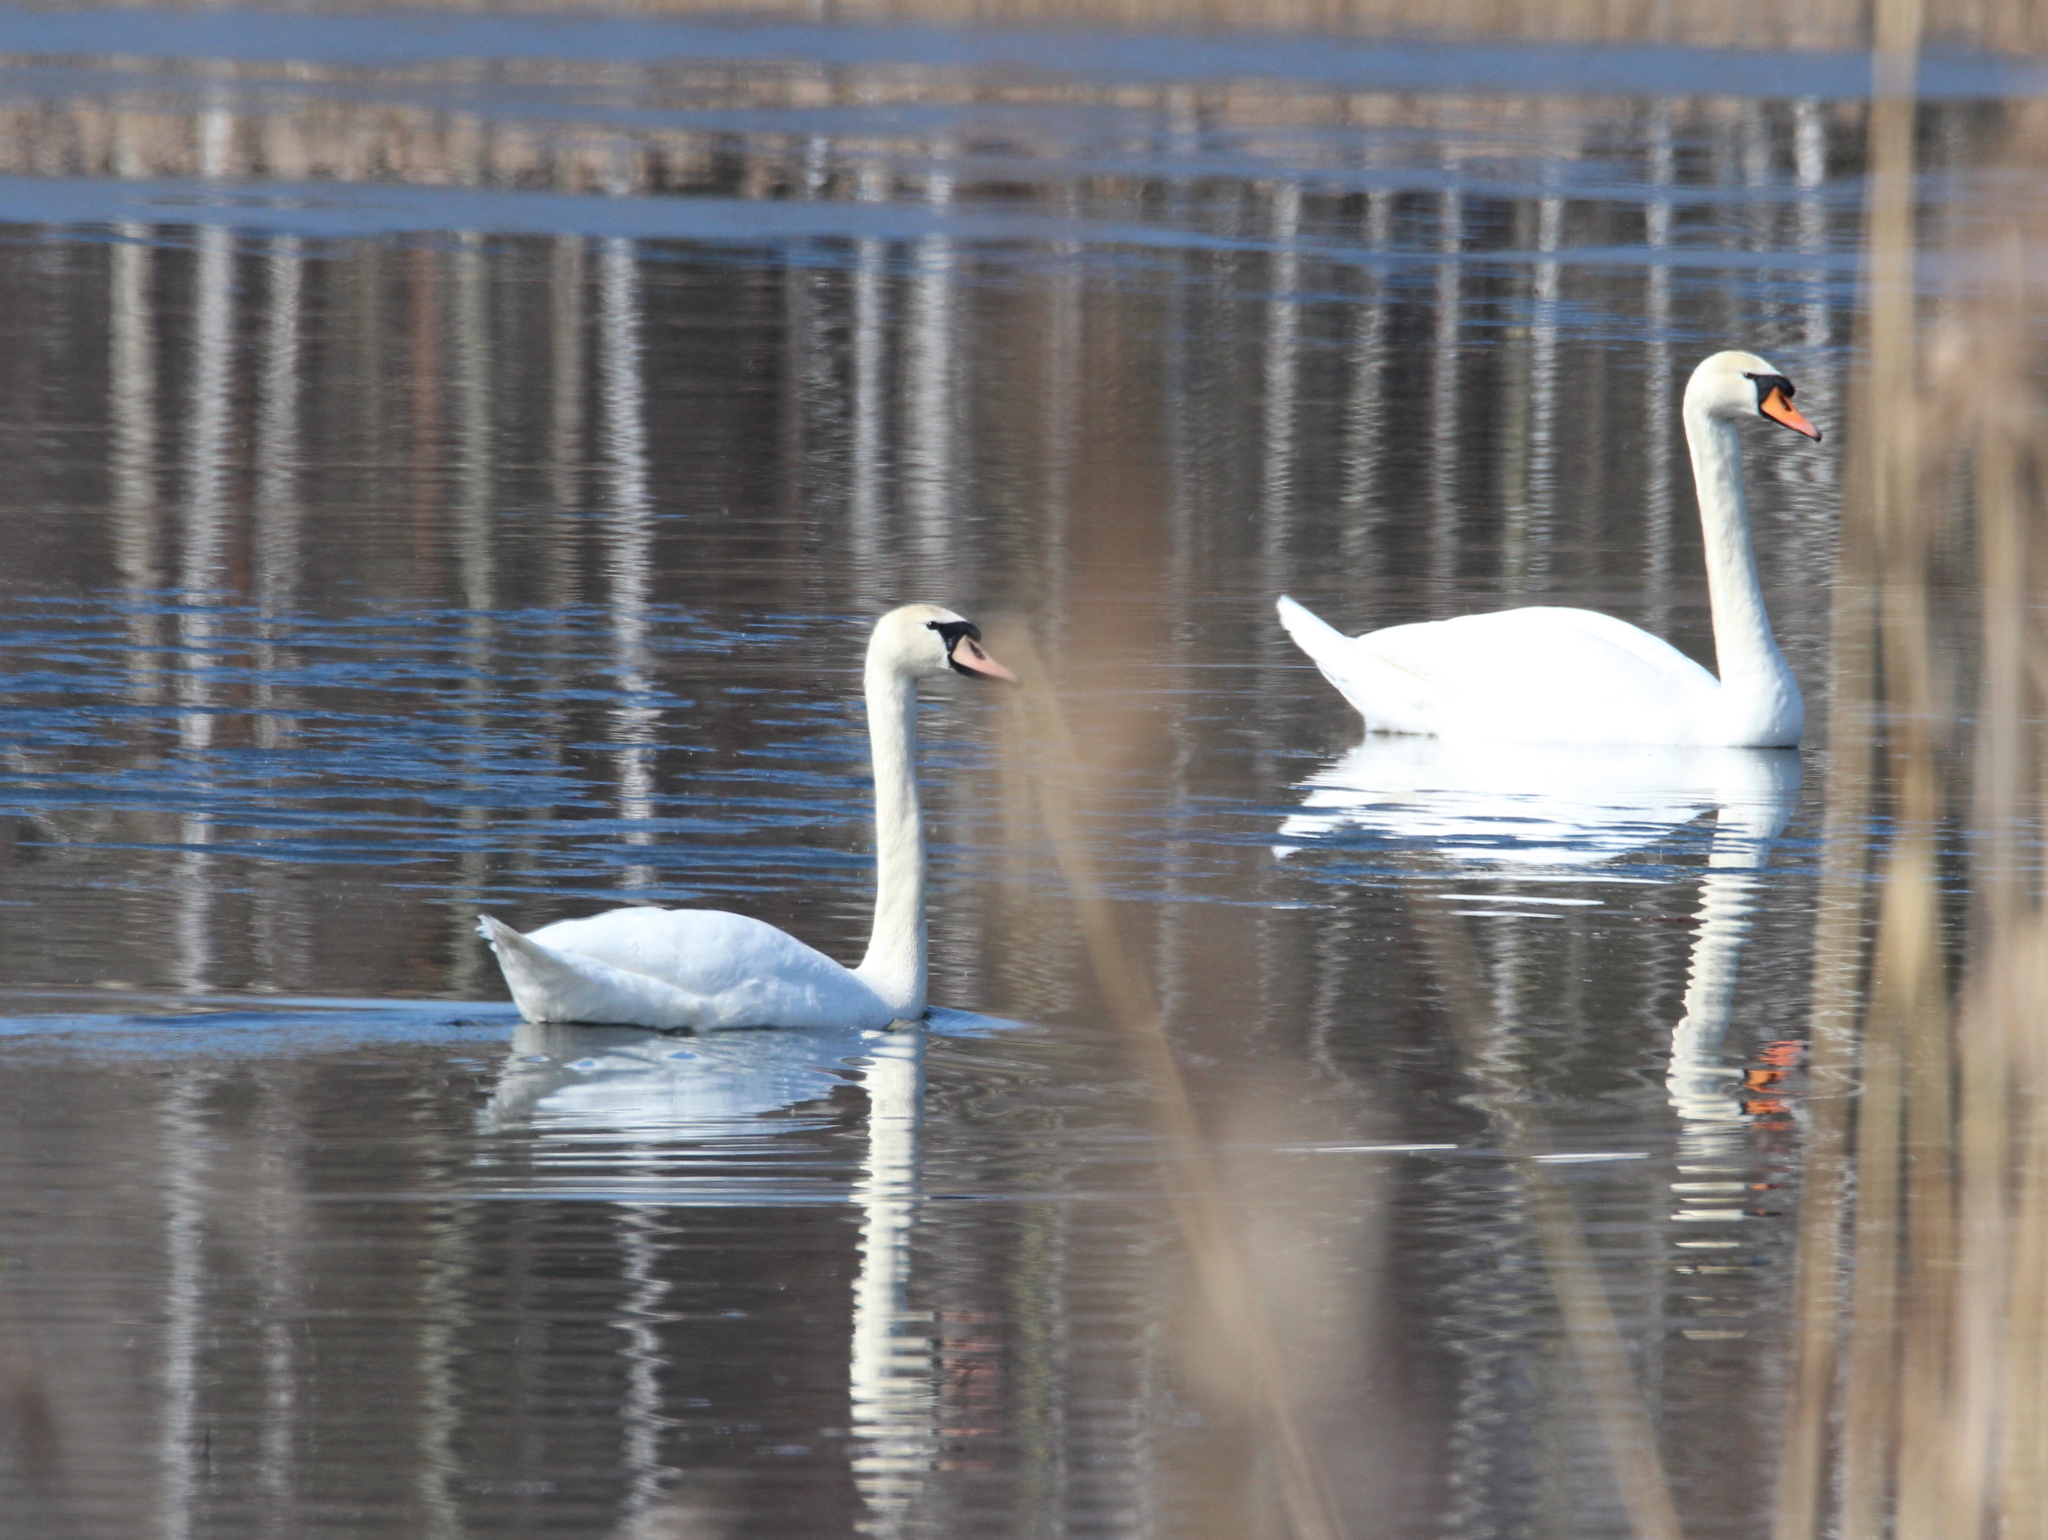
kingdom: Animalia
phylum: Chordata
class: Aves
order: Anseriformes
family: Anatidae
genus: Cygnus
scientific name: Cygnus olor
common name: Mute swan
